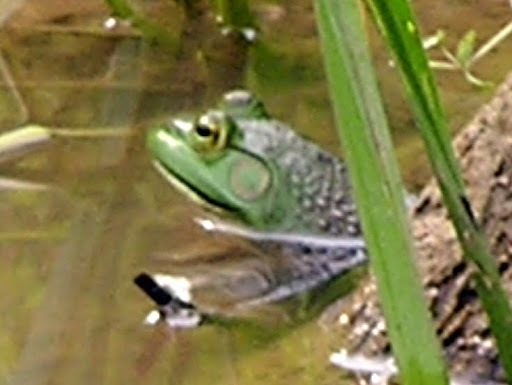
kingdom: Animalia
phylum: Chordata
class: Amphibia
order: Anura
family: Ranidae
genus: Lithobates
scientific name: Lithobates catesbeianus
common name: American bullfrog
